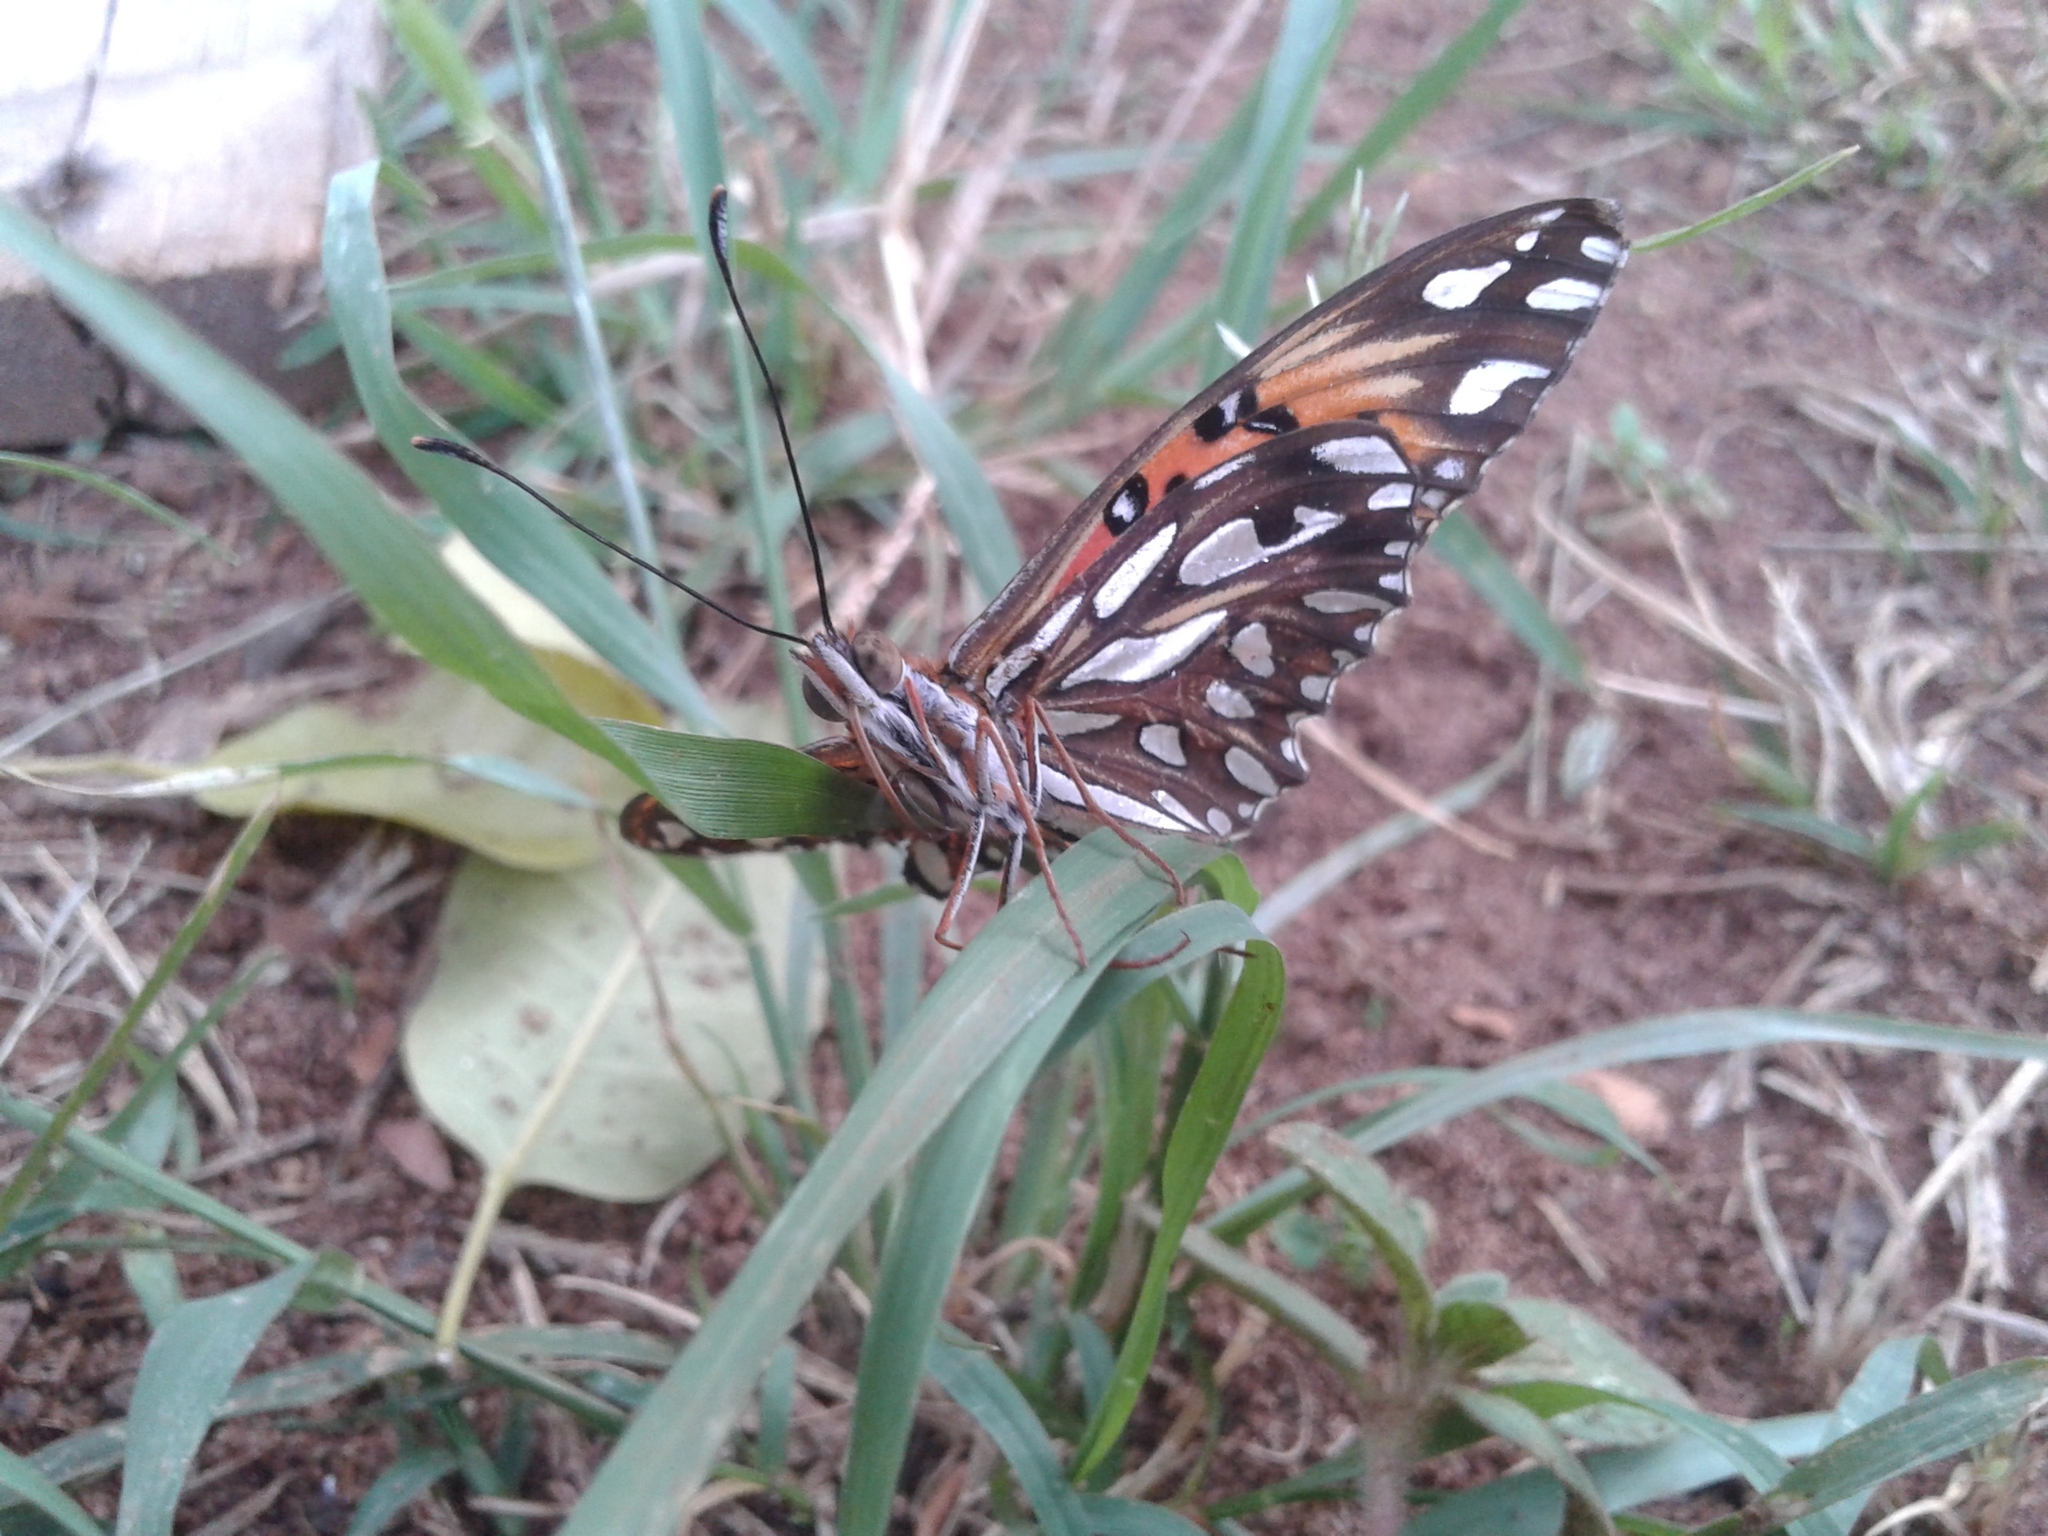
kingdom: Animalia
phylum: Arthropoda
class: Insecta
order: Lepidoptera
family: Nymphalidae
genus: Dione
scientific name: Dione vanillae
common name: Gulf fritillary
